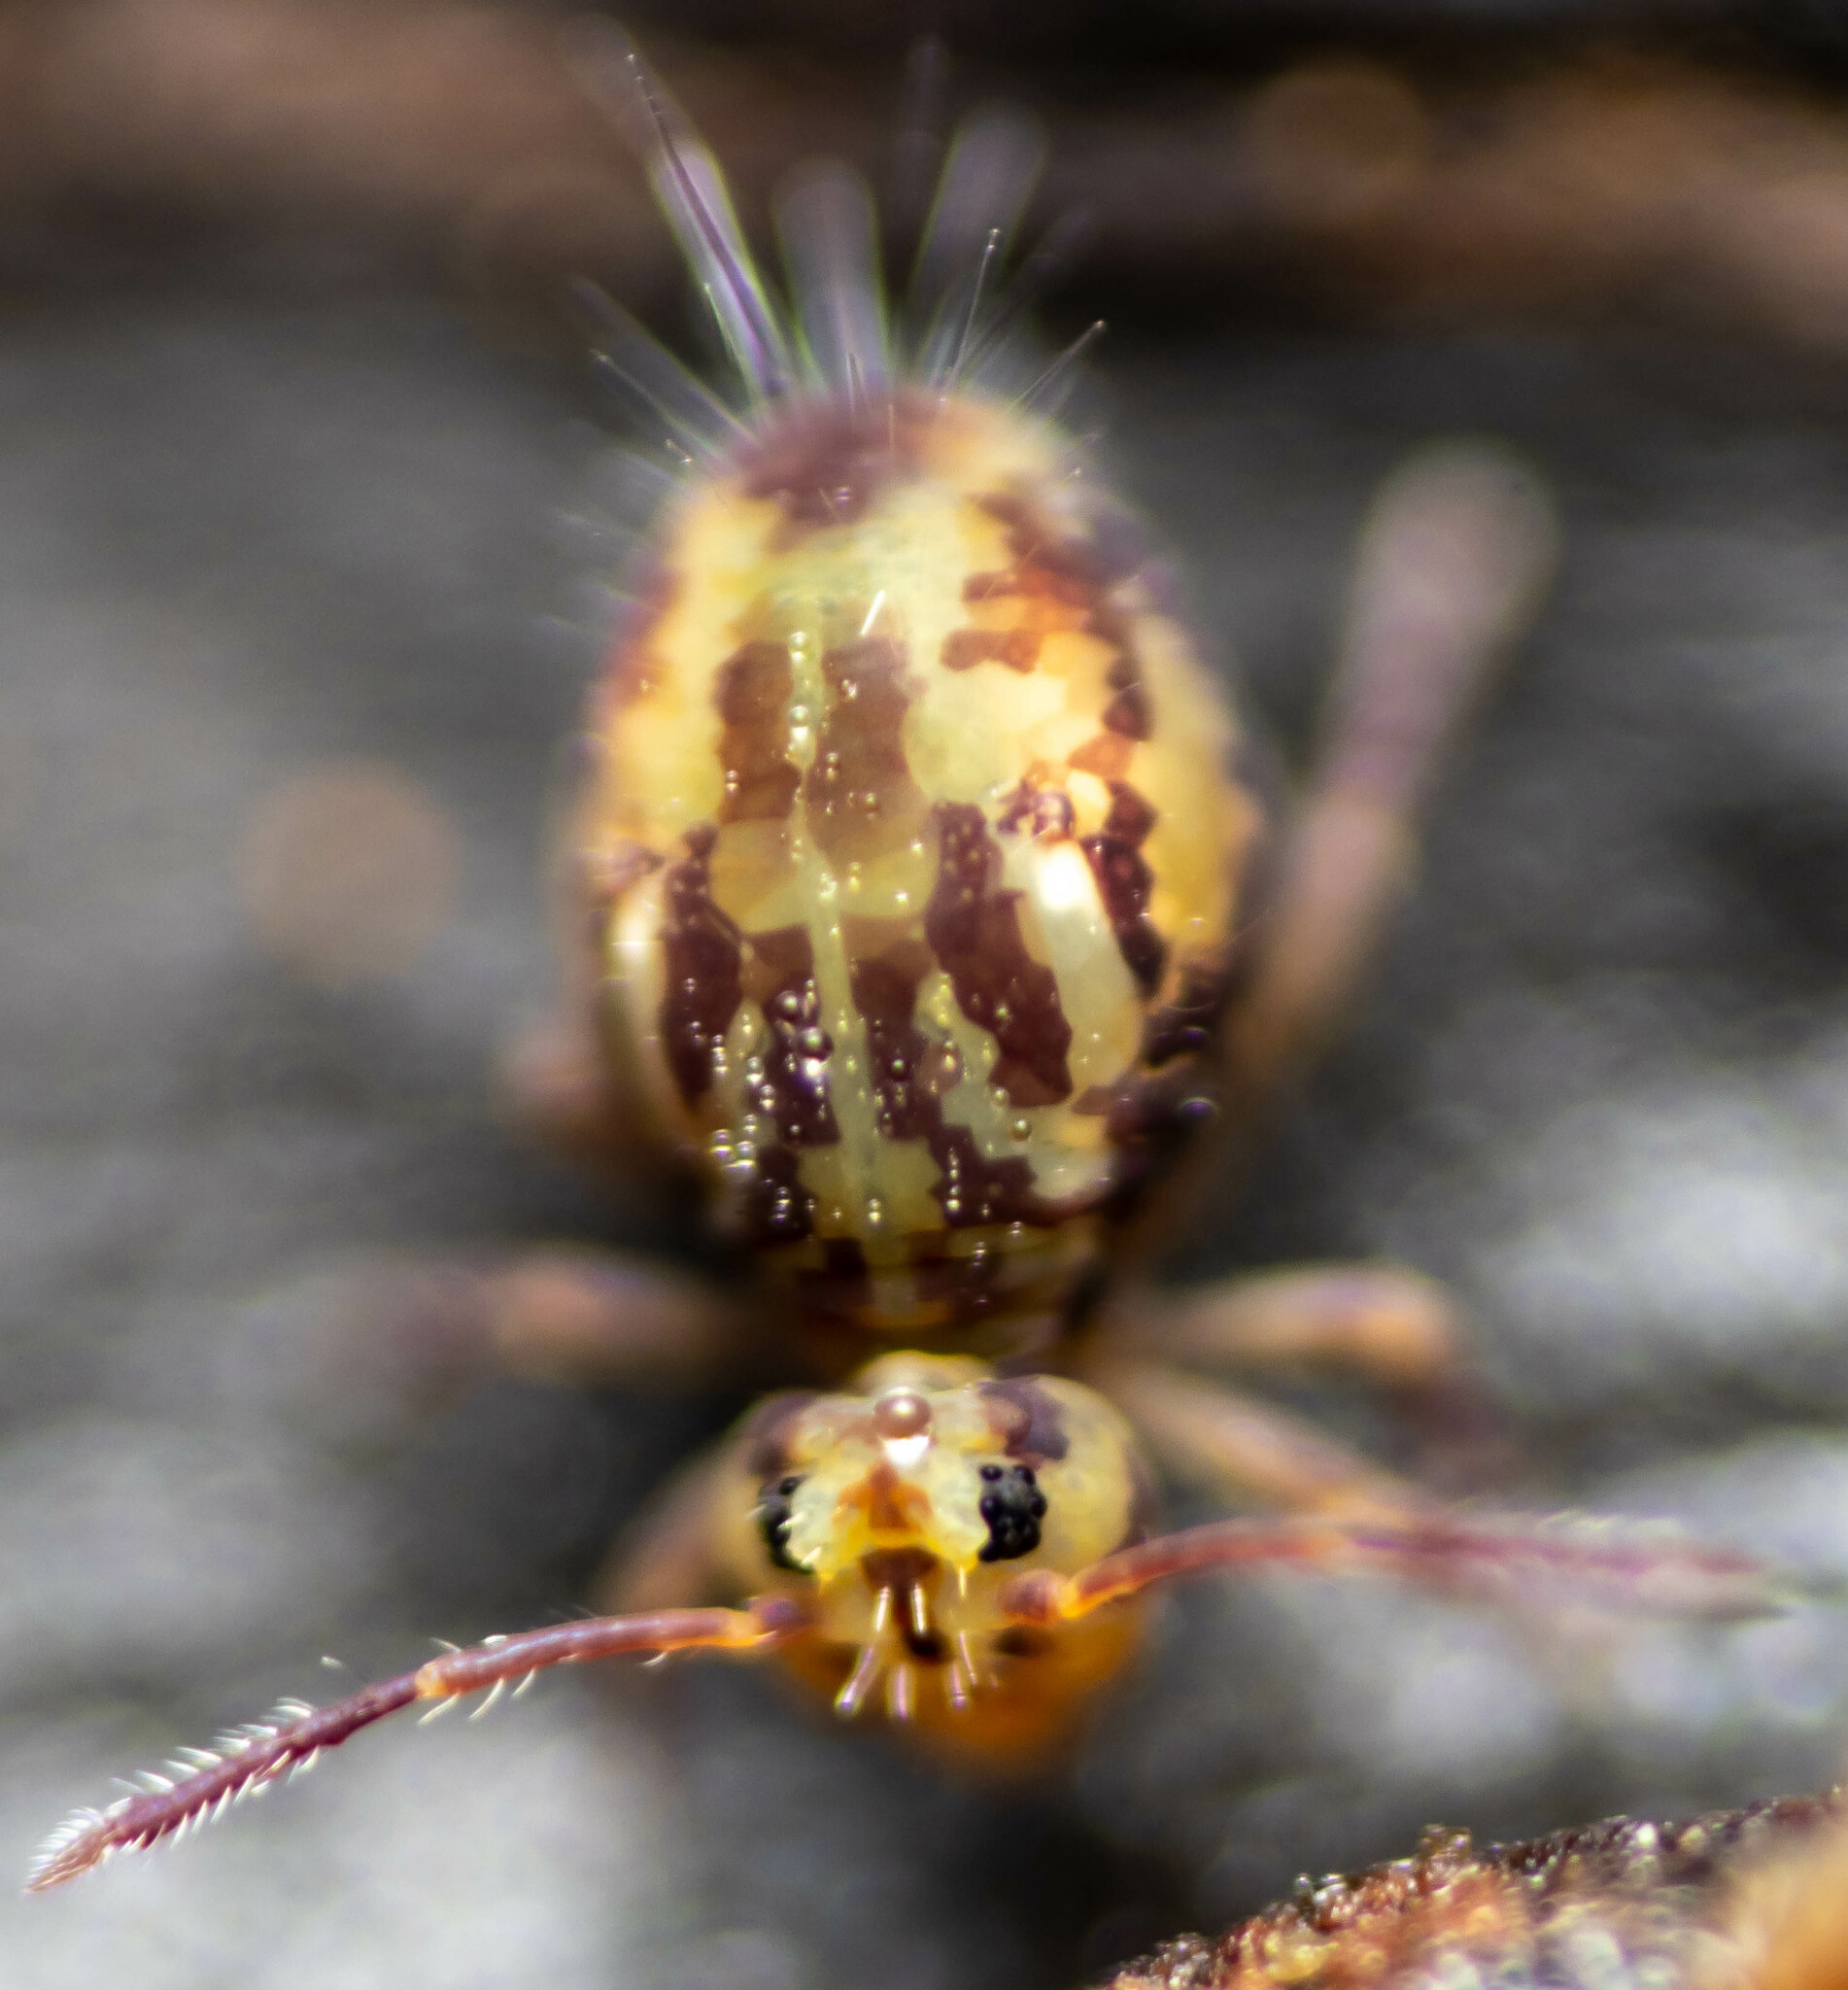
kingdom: Animalia
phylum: Arthropoda
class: Collembola
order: Symphypleona
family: Dicyrtomidae
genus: Dicyrtomina
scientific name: Dicyrtomina saundersi
